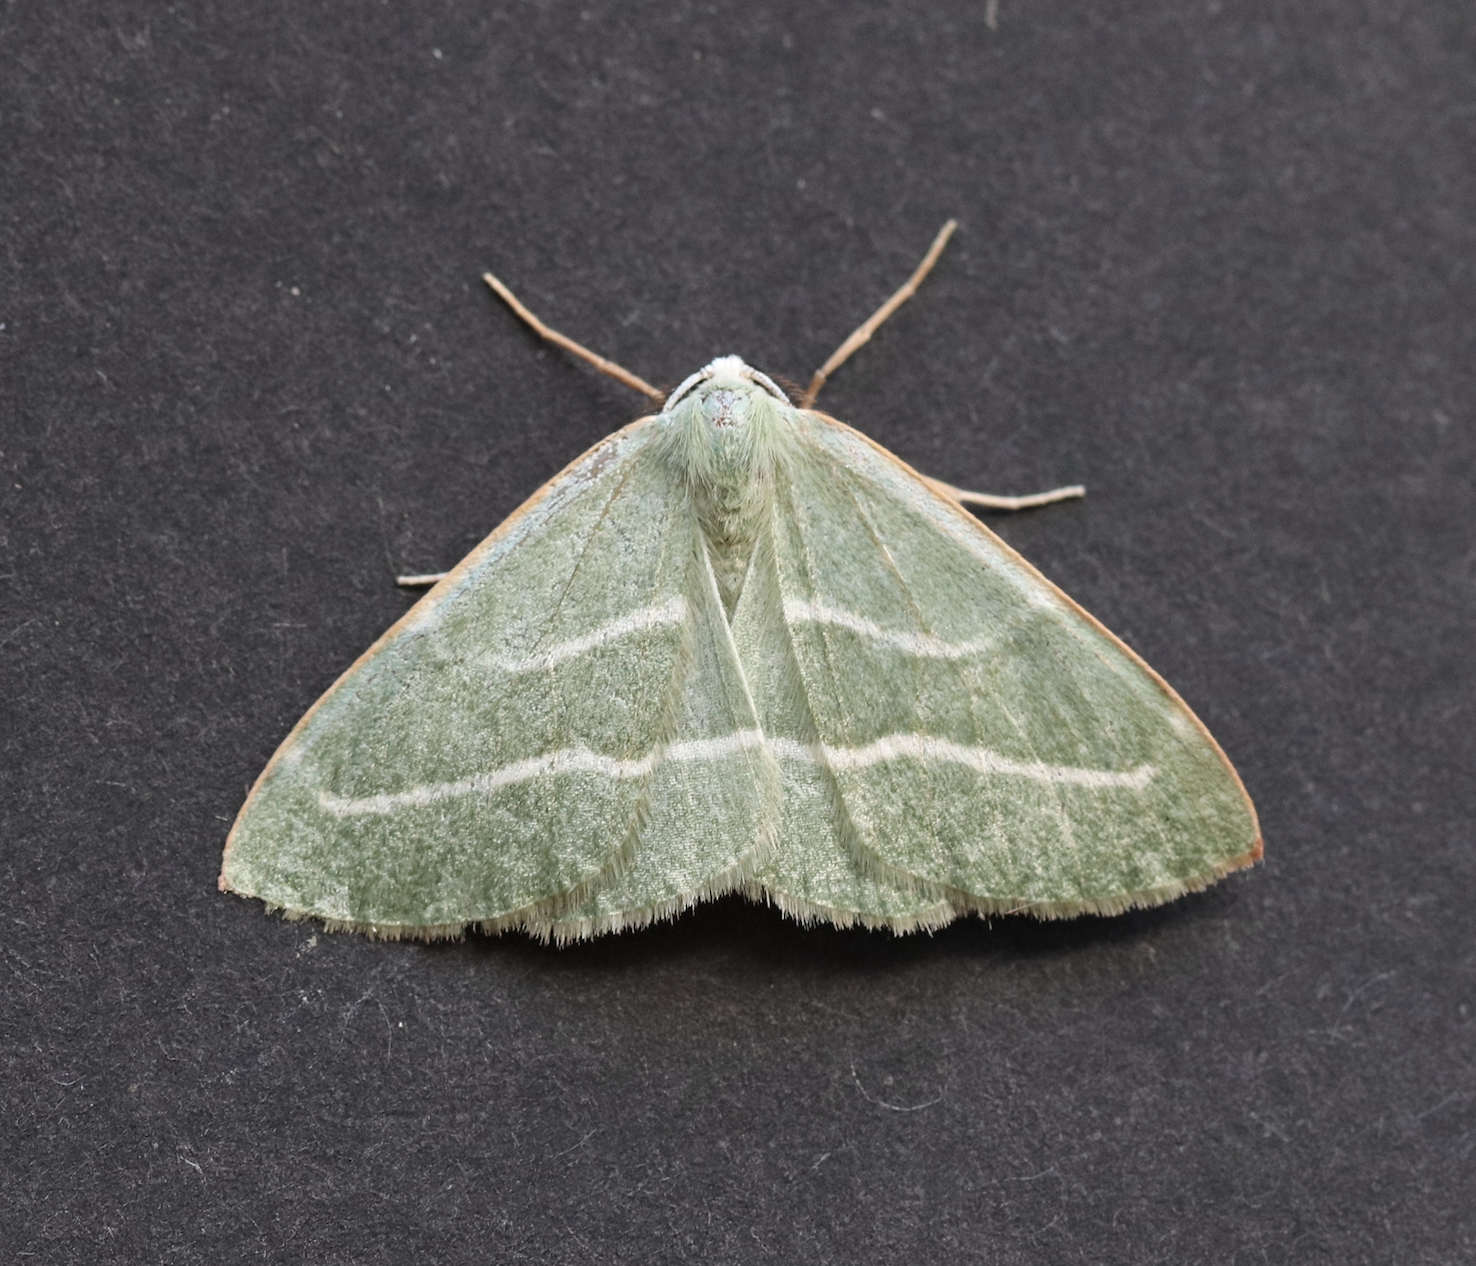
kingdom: Animalia
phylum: Arthropoda
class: Insecta
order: Lepidoptera
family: Geometridae
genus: Hylaea
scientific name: Hylaea fasciaria
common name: Barred red
